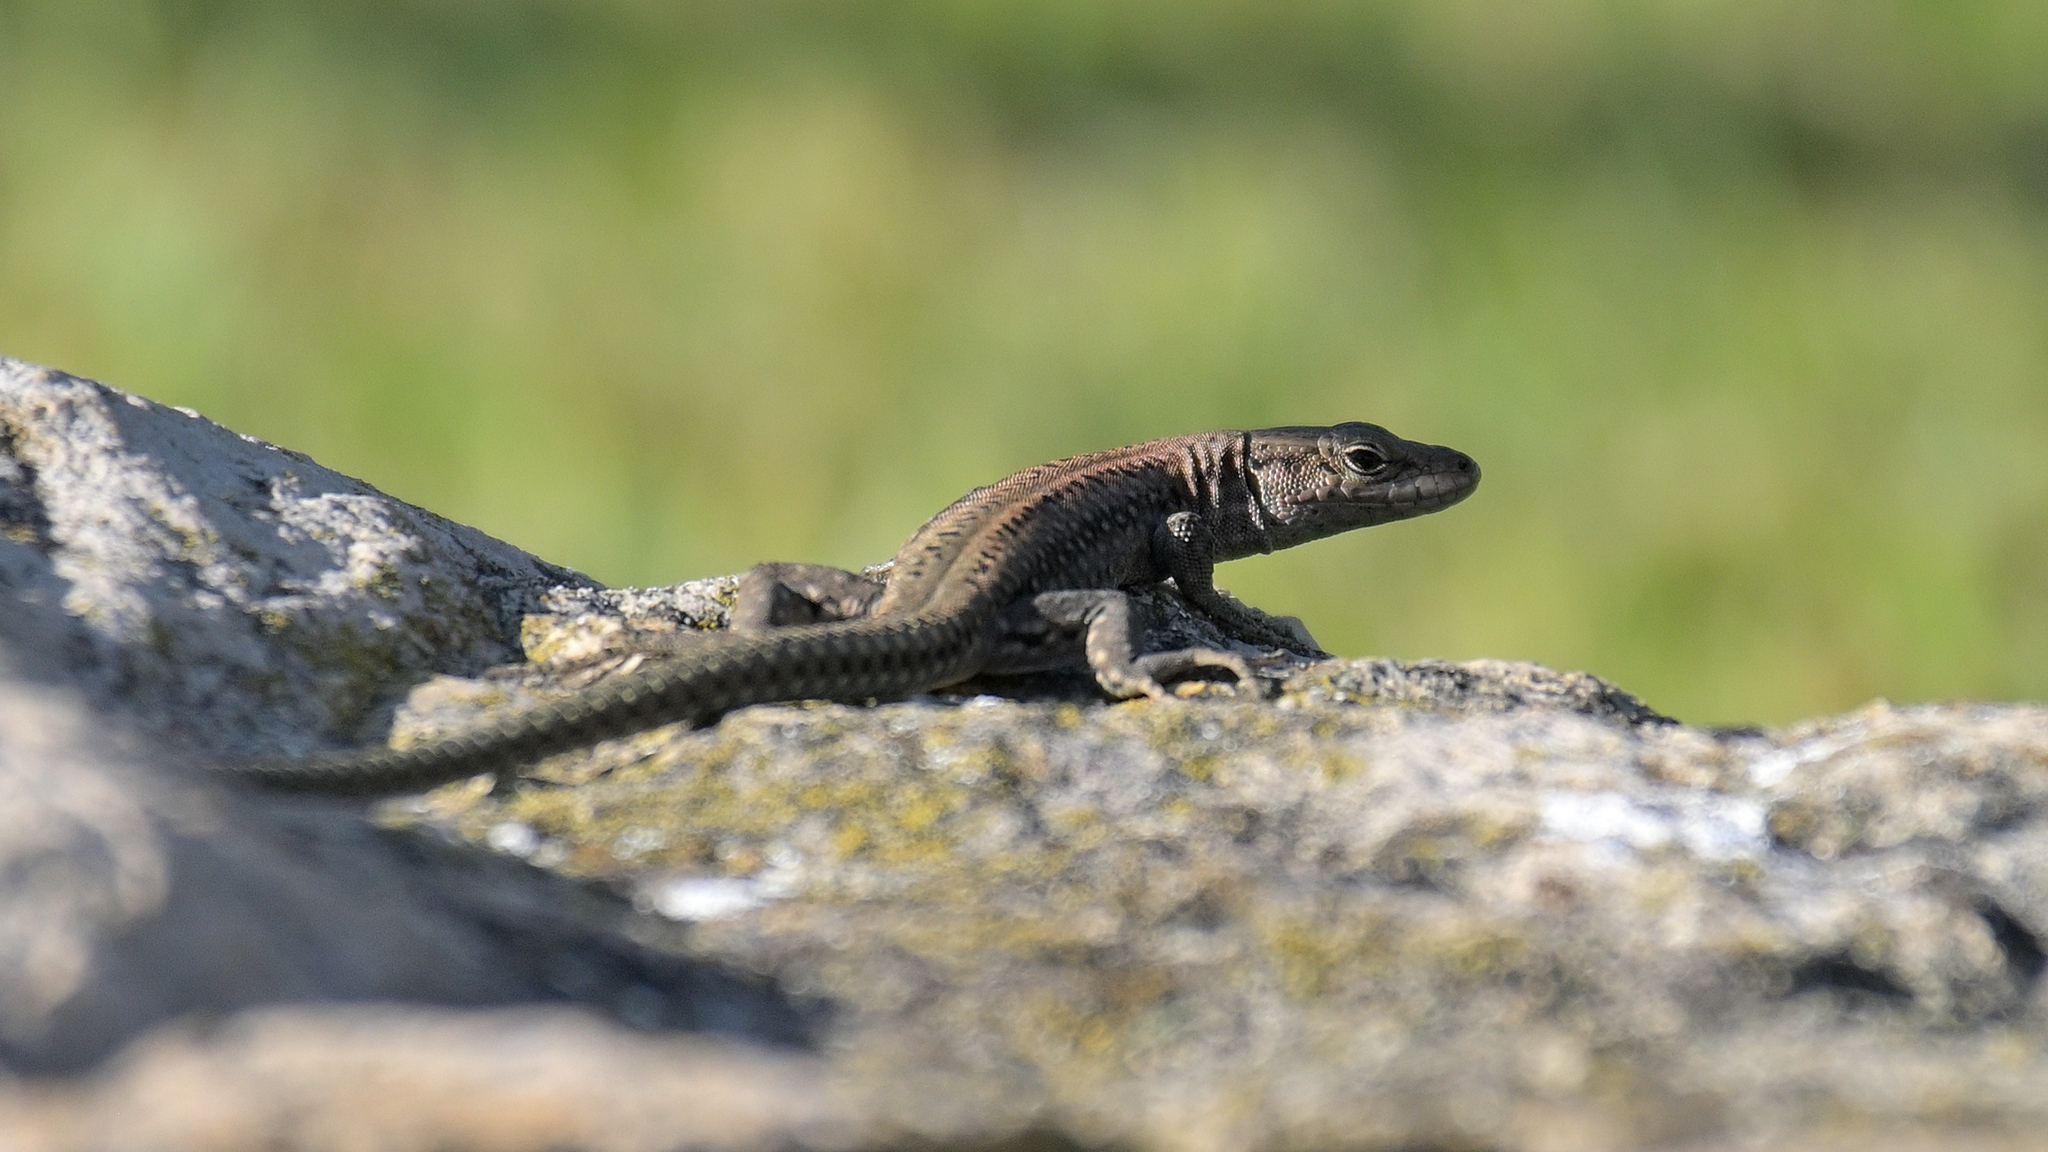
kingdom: Animalia
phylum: Chordata
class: Squamata
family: Lacertidae
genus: Podarcis
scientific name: Podarcis virescens
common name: Geniez’s wall lizard
